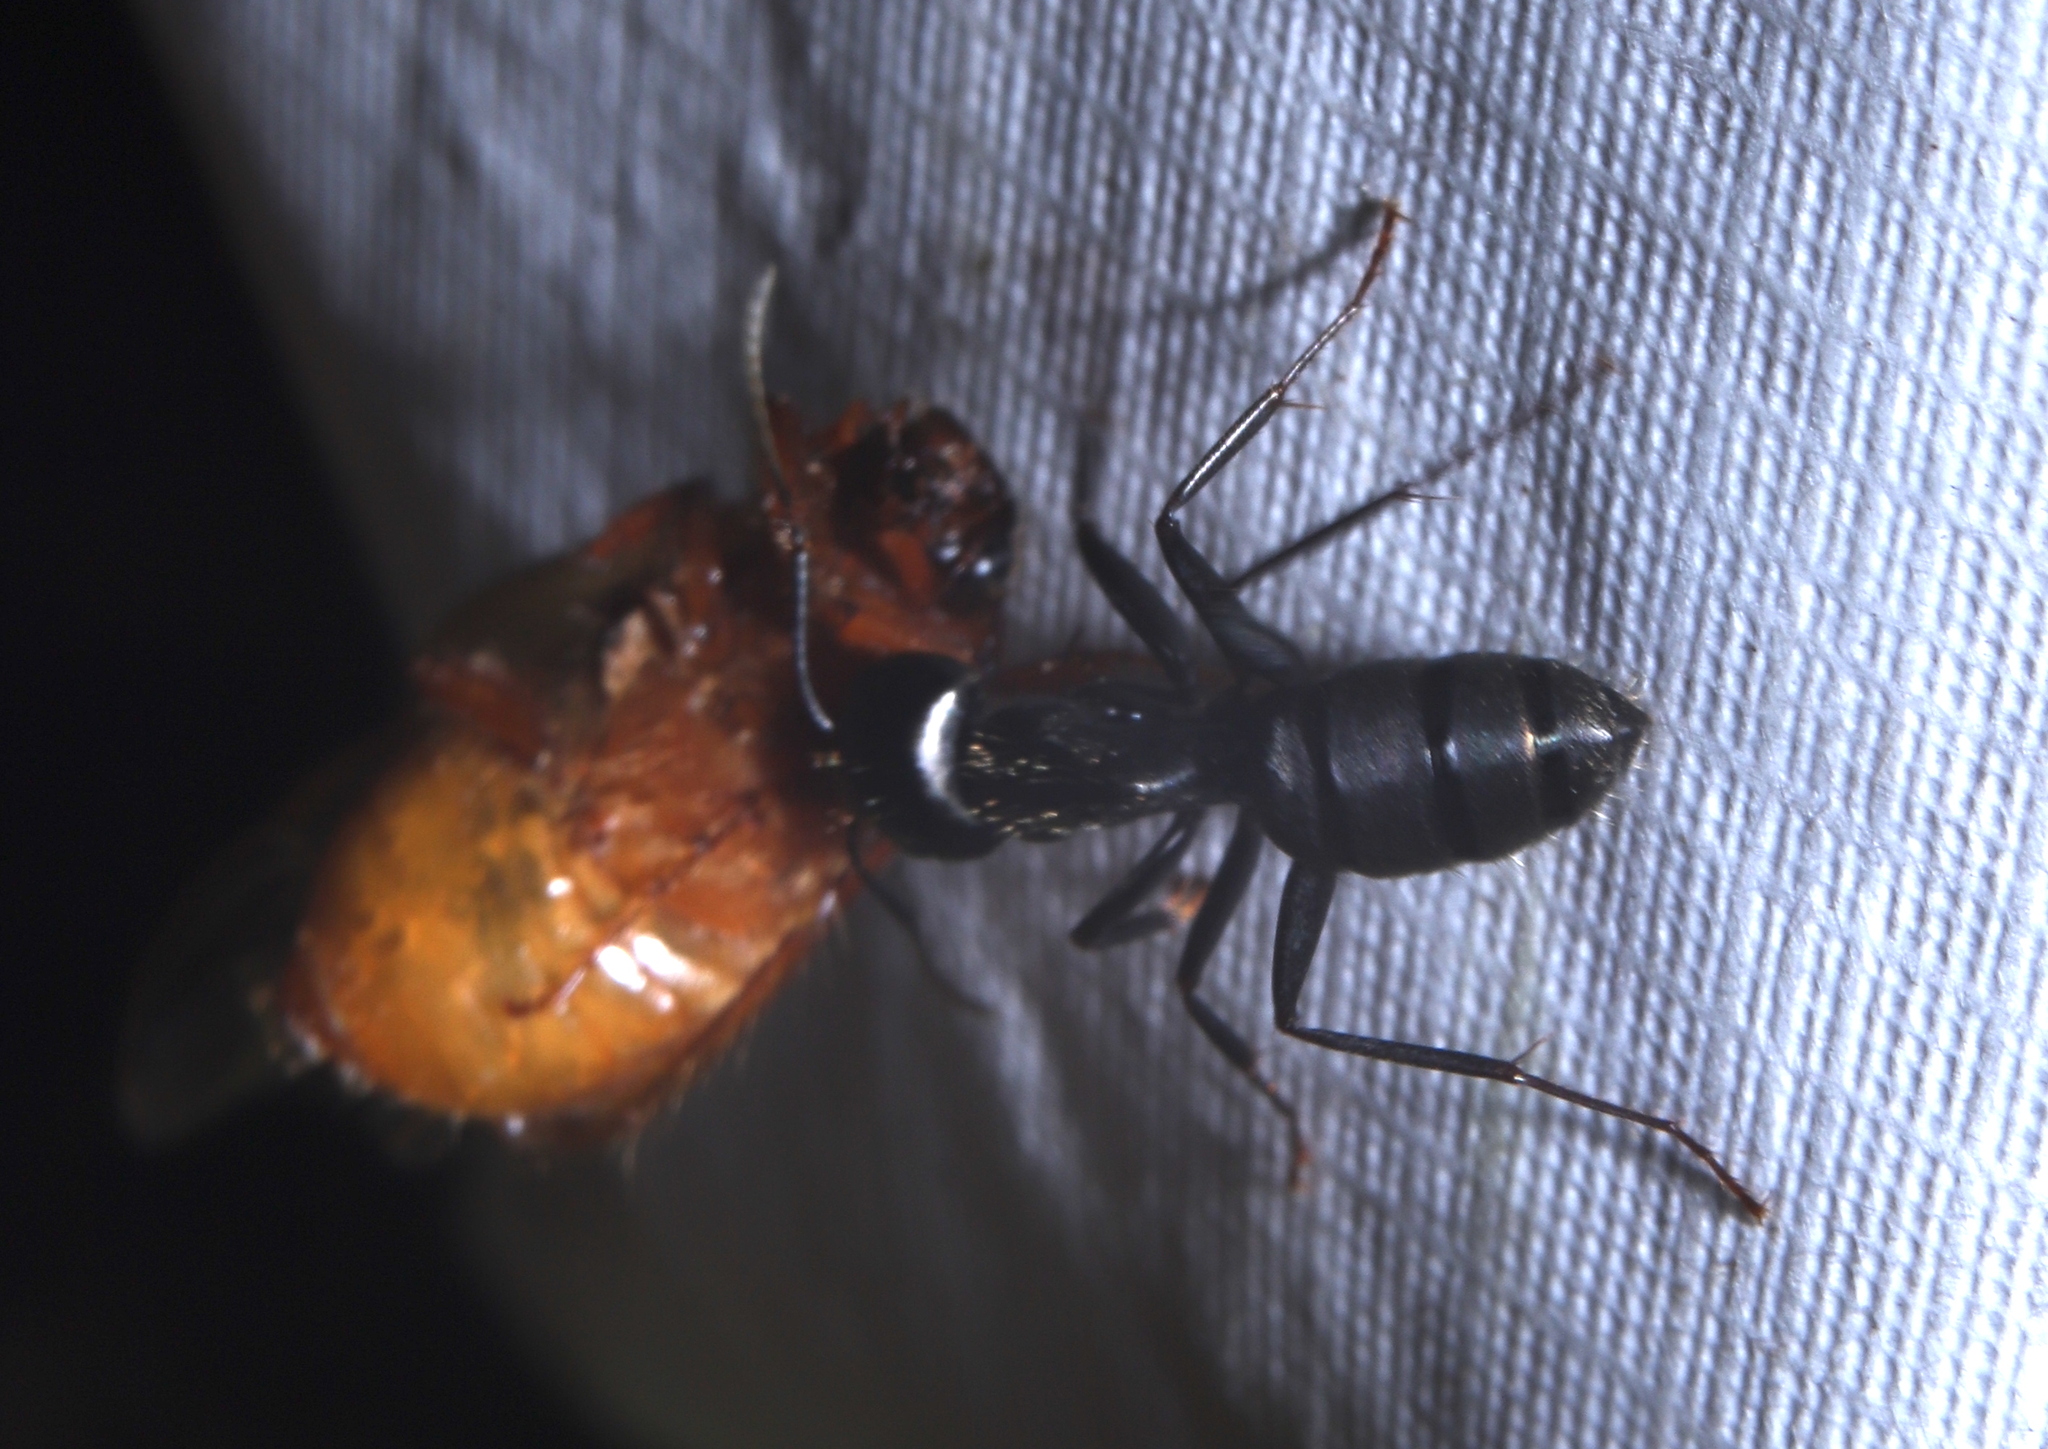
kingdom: Animalia
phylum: Arthropoda
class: Insecta
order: Hymenoptera
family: Formicidae
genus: Camponotus
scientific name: Camponotus pennsylvanicus
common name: Black carpenter ant
